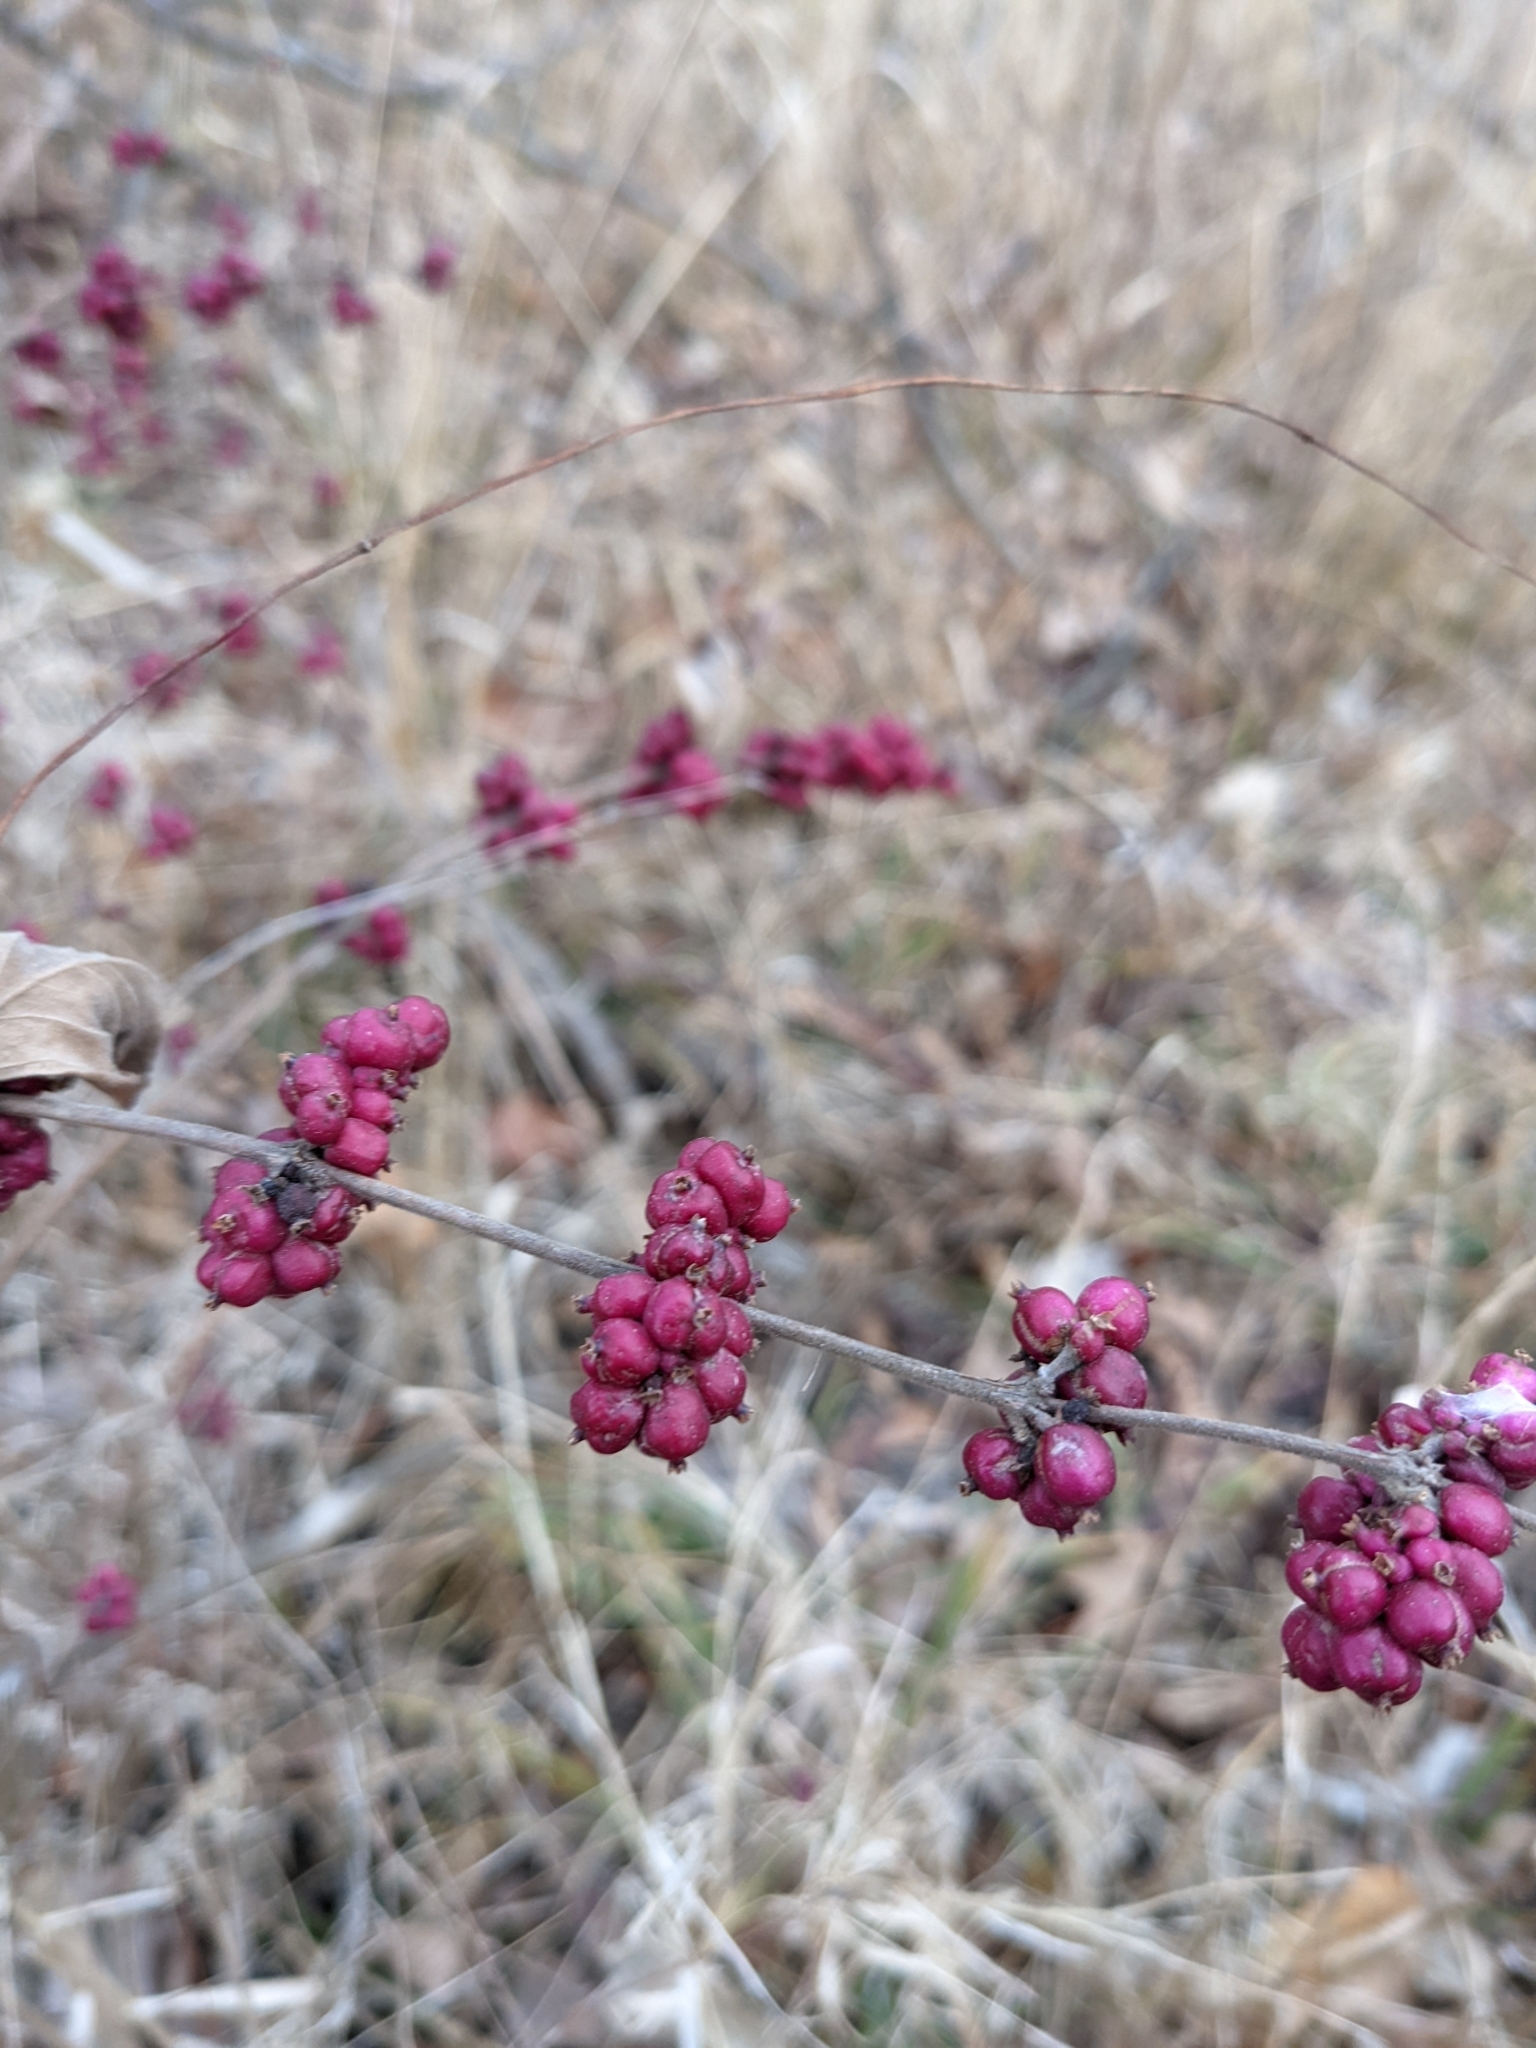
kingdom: Plantae
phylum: Tracheophyta
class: Magnoliopsida
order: Dipsacales
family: Caprifoliaceae
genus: Symphoricarpos
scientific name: Symphoricarpos orbiculatus
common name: Coralberry
